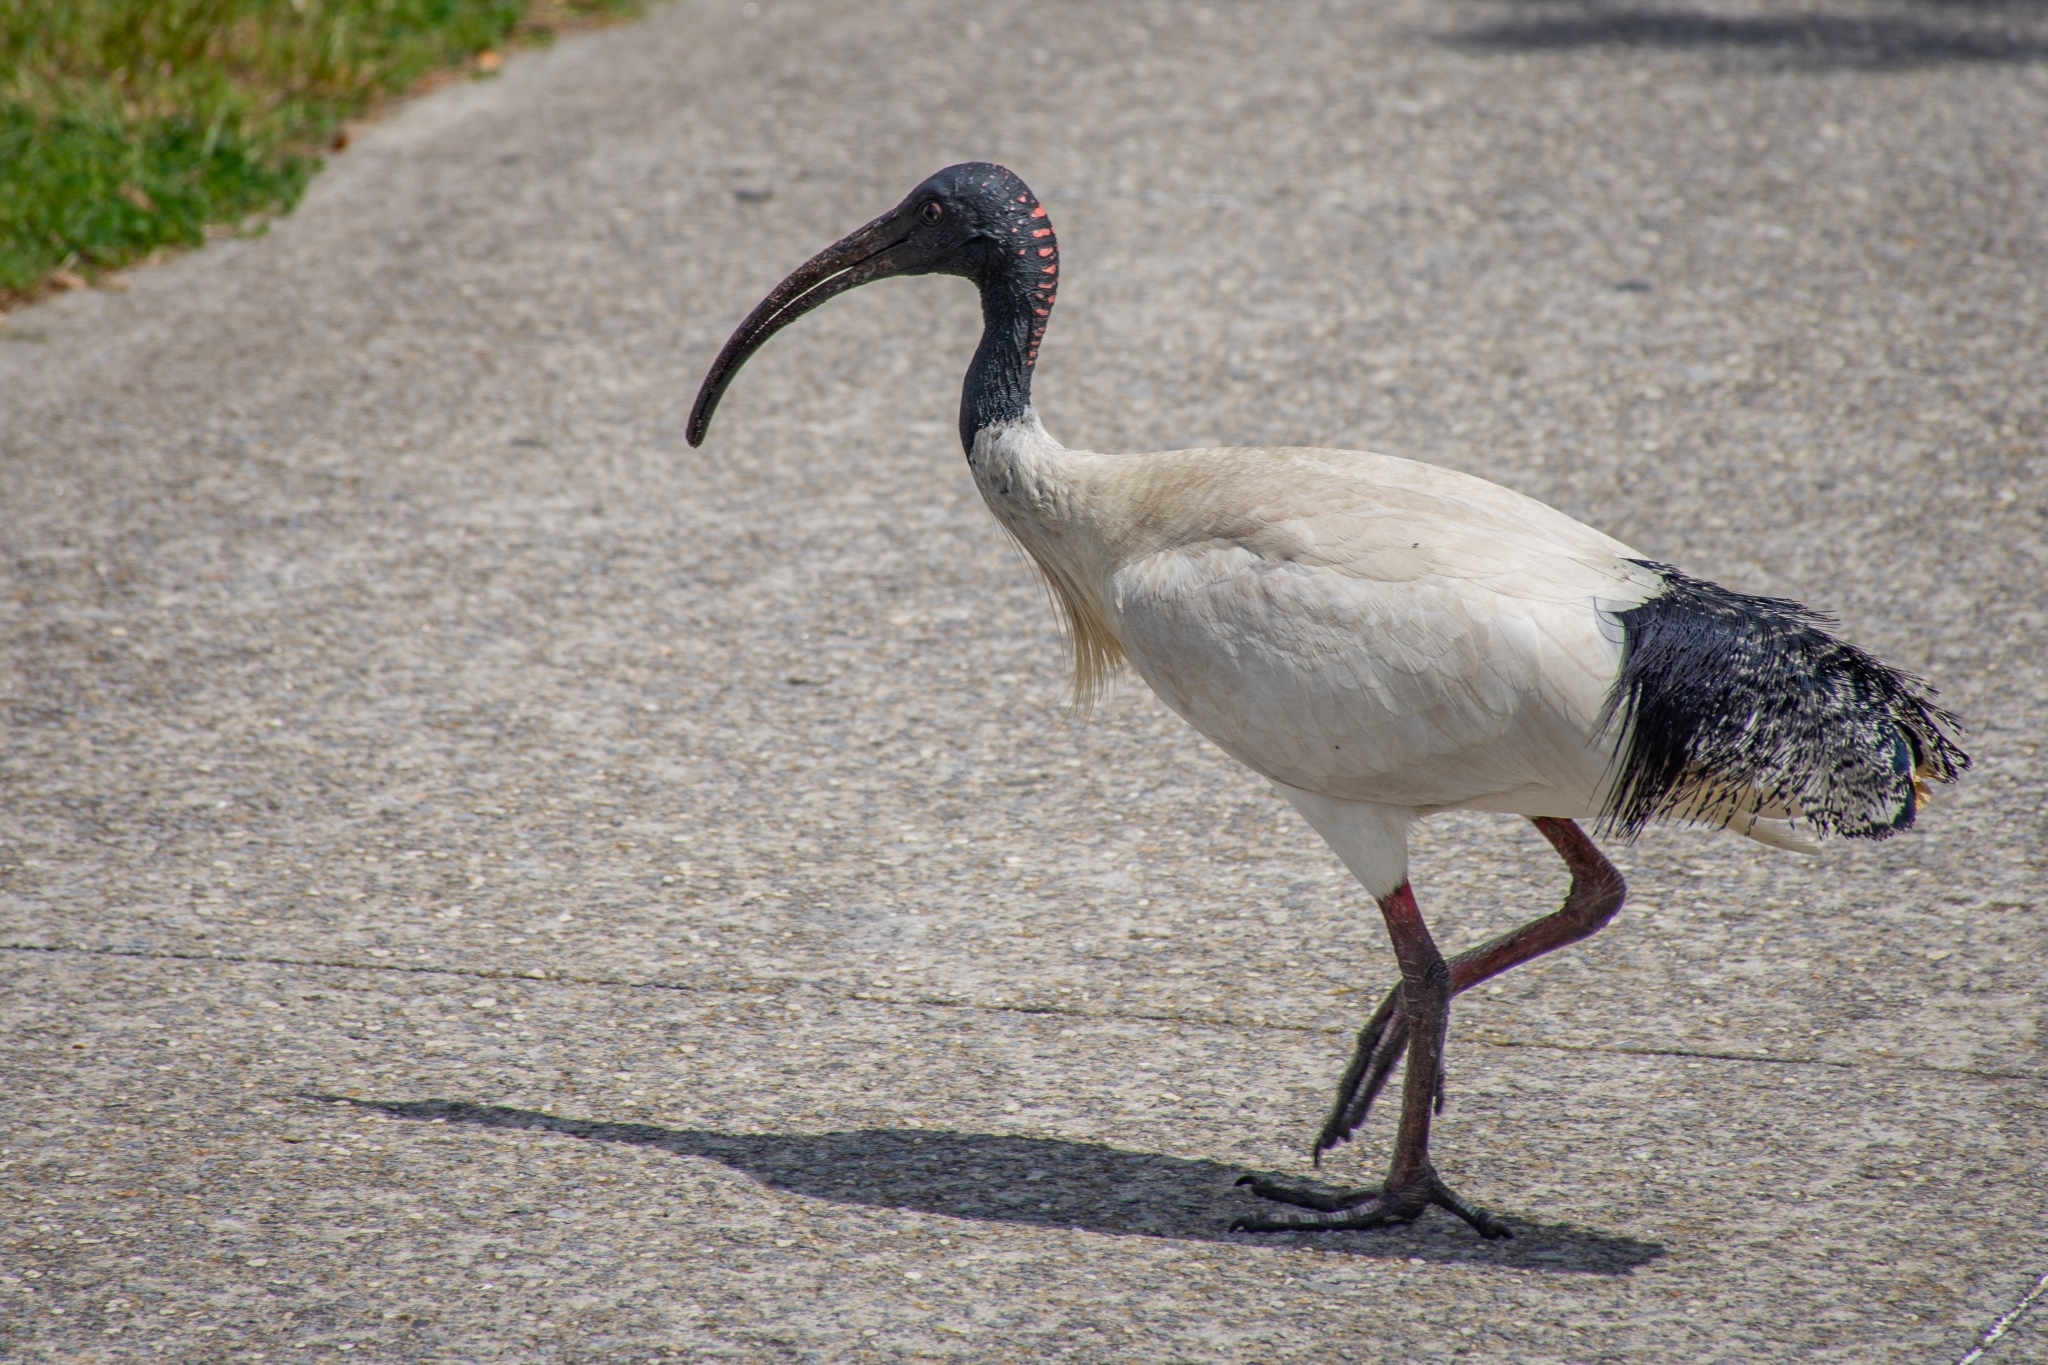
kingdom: Animalia
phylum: Chordata
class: Aves
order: Pelecaniformes
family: Threskiornithidae
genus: Threskiornis
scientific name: Threskiornis molucca
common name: Australian white ibis
